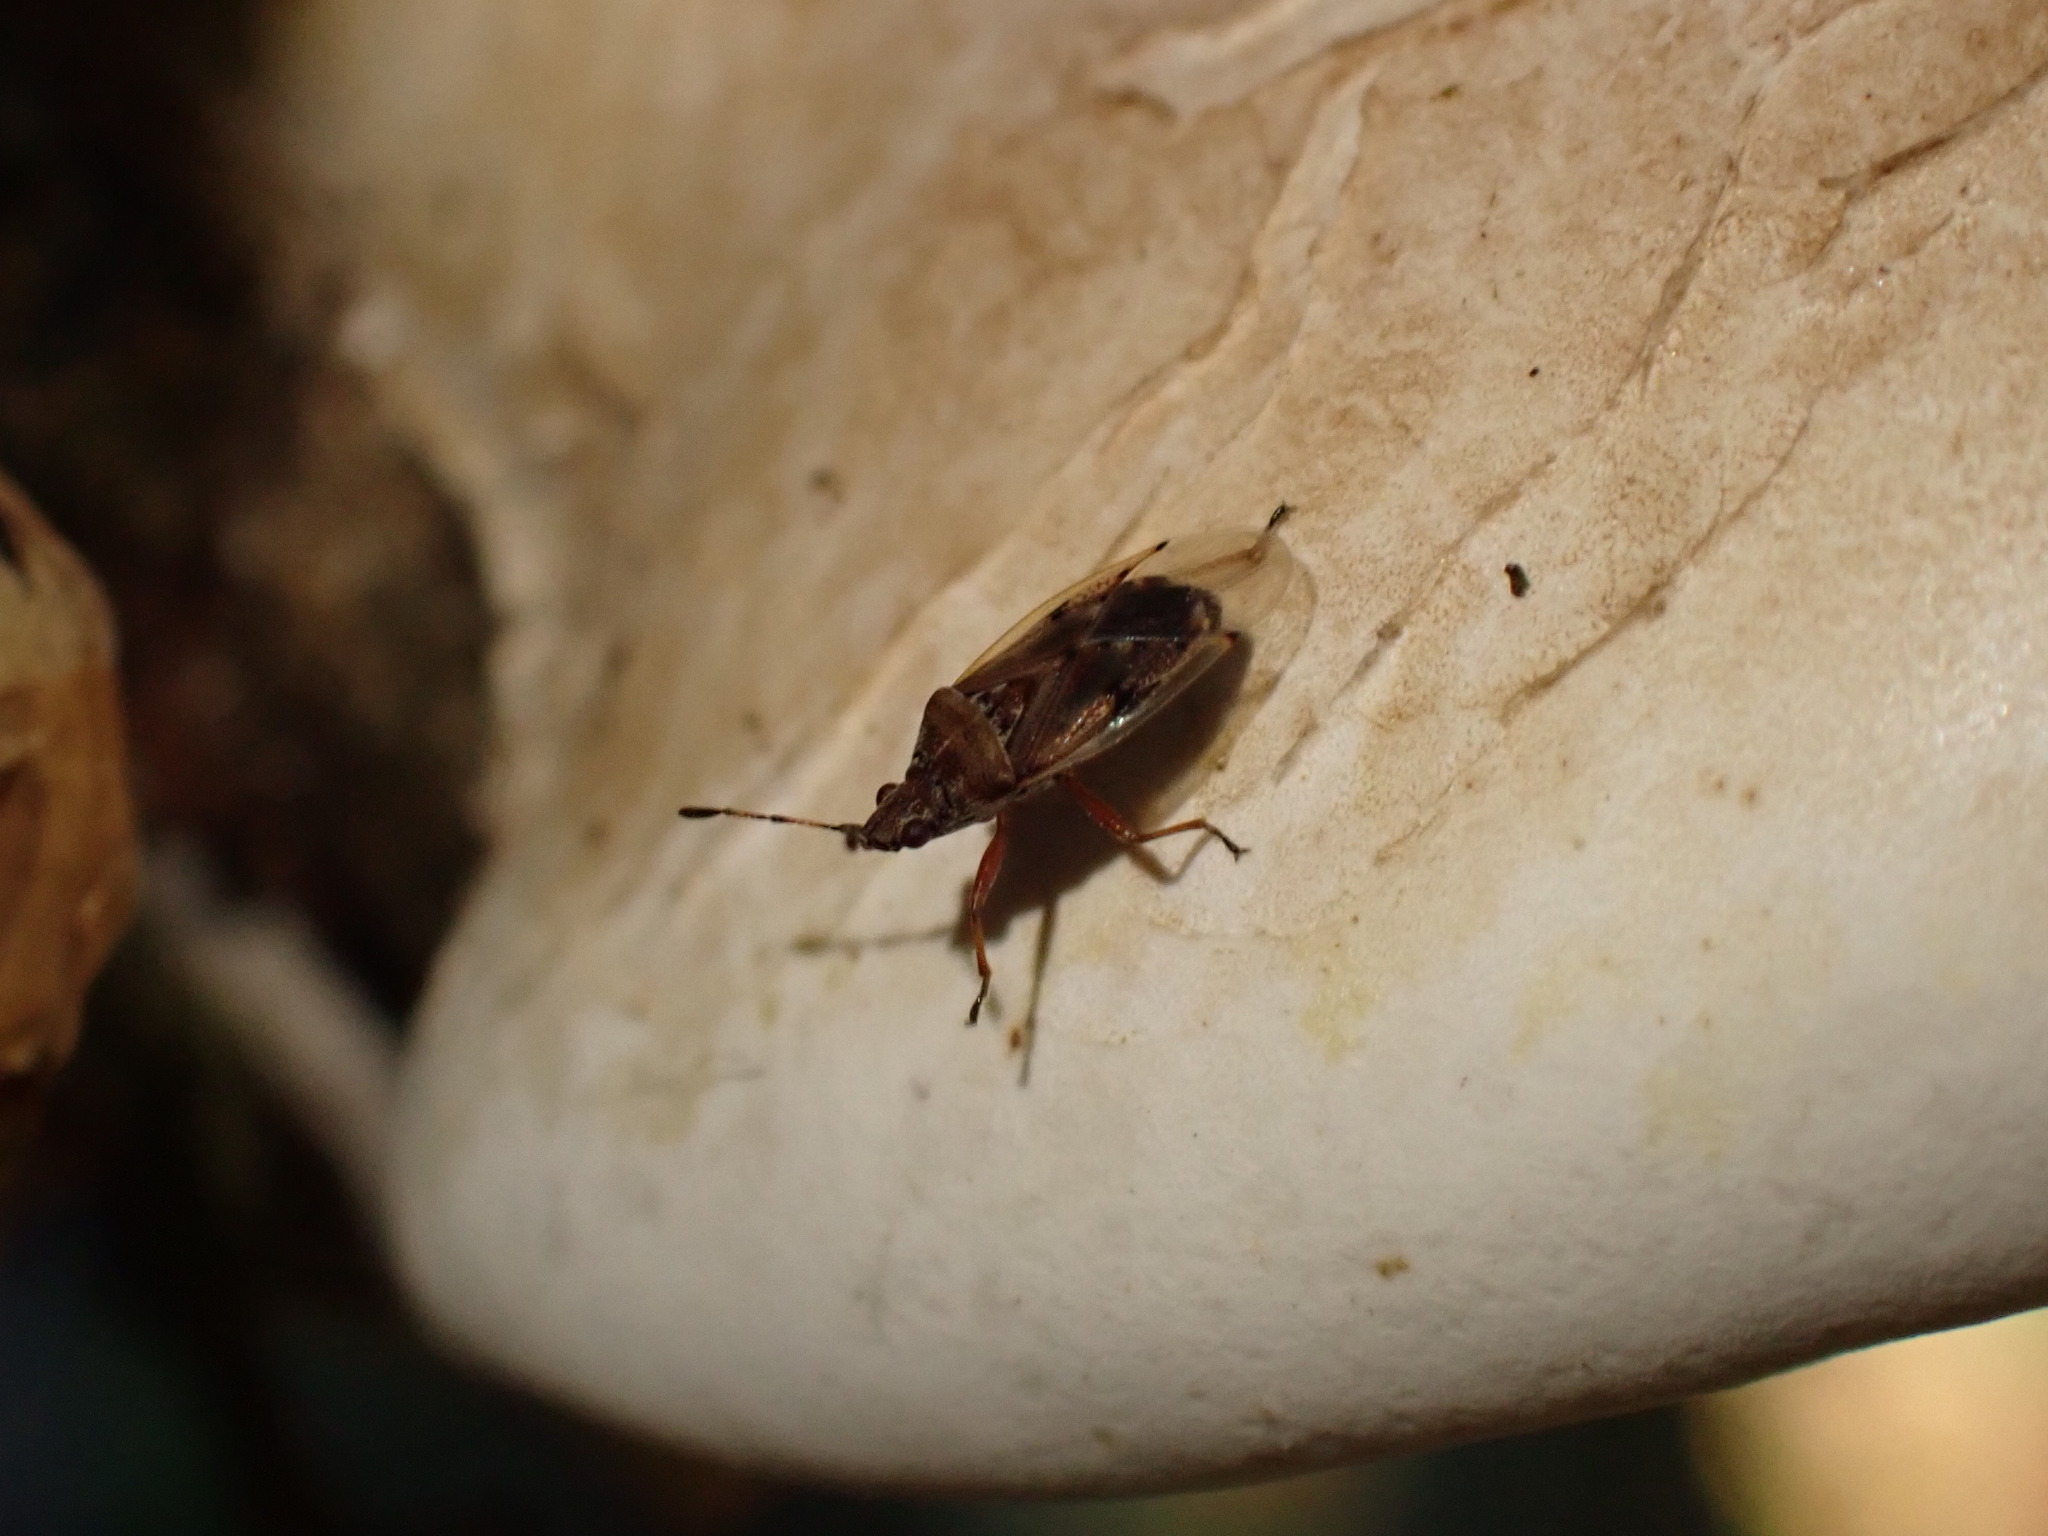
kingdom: Animalia
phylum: Arthropoda
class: Insecta
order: Hemiptera
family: Lygaeidae
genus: Kleidocerys
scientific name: Kleidocerys resedae
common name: Birch catkin bug
